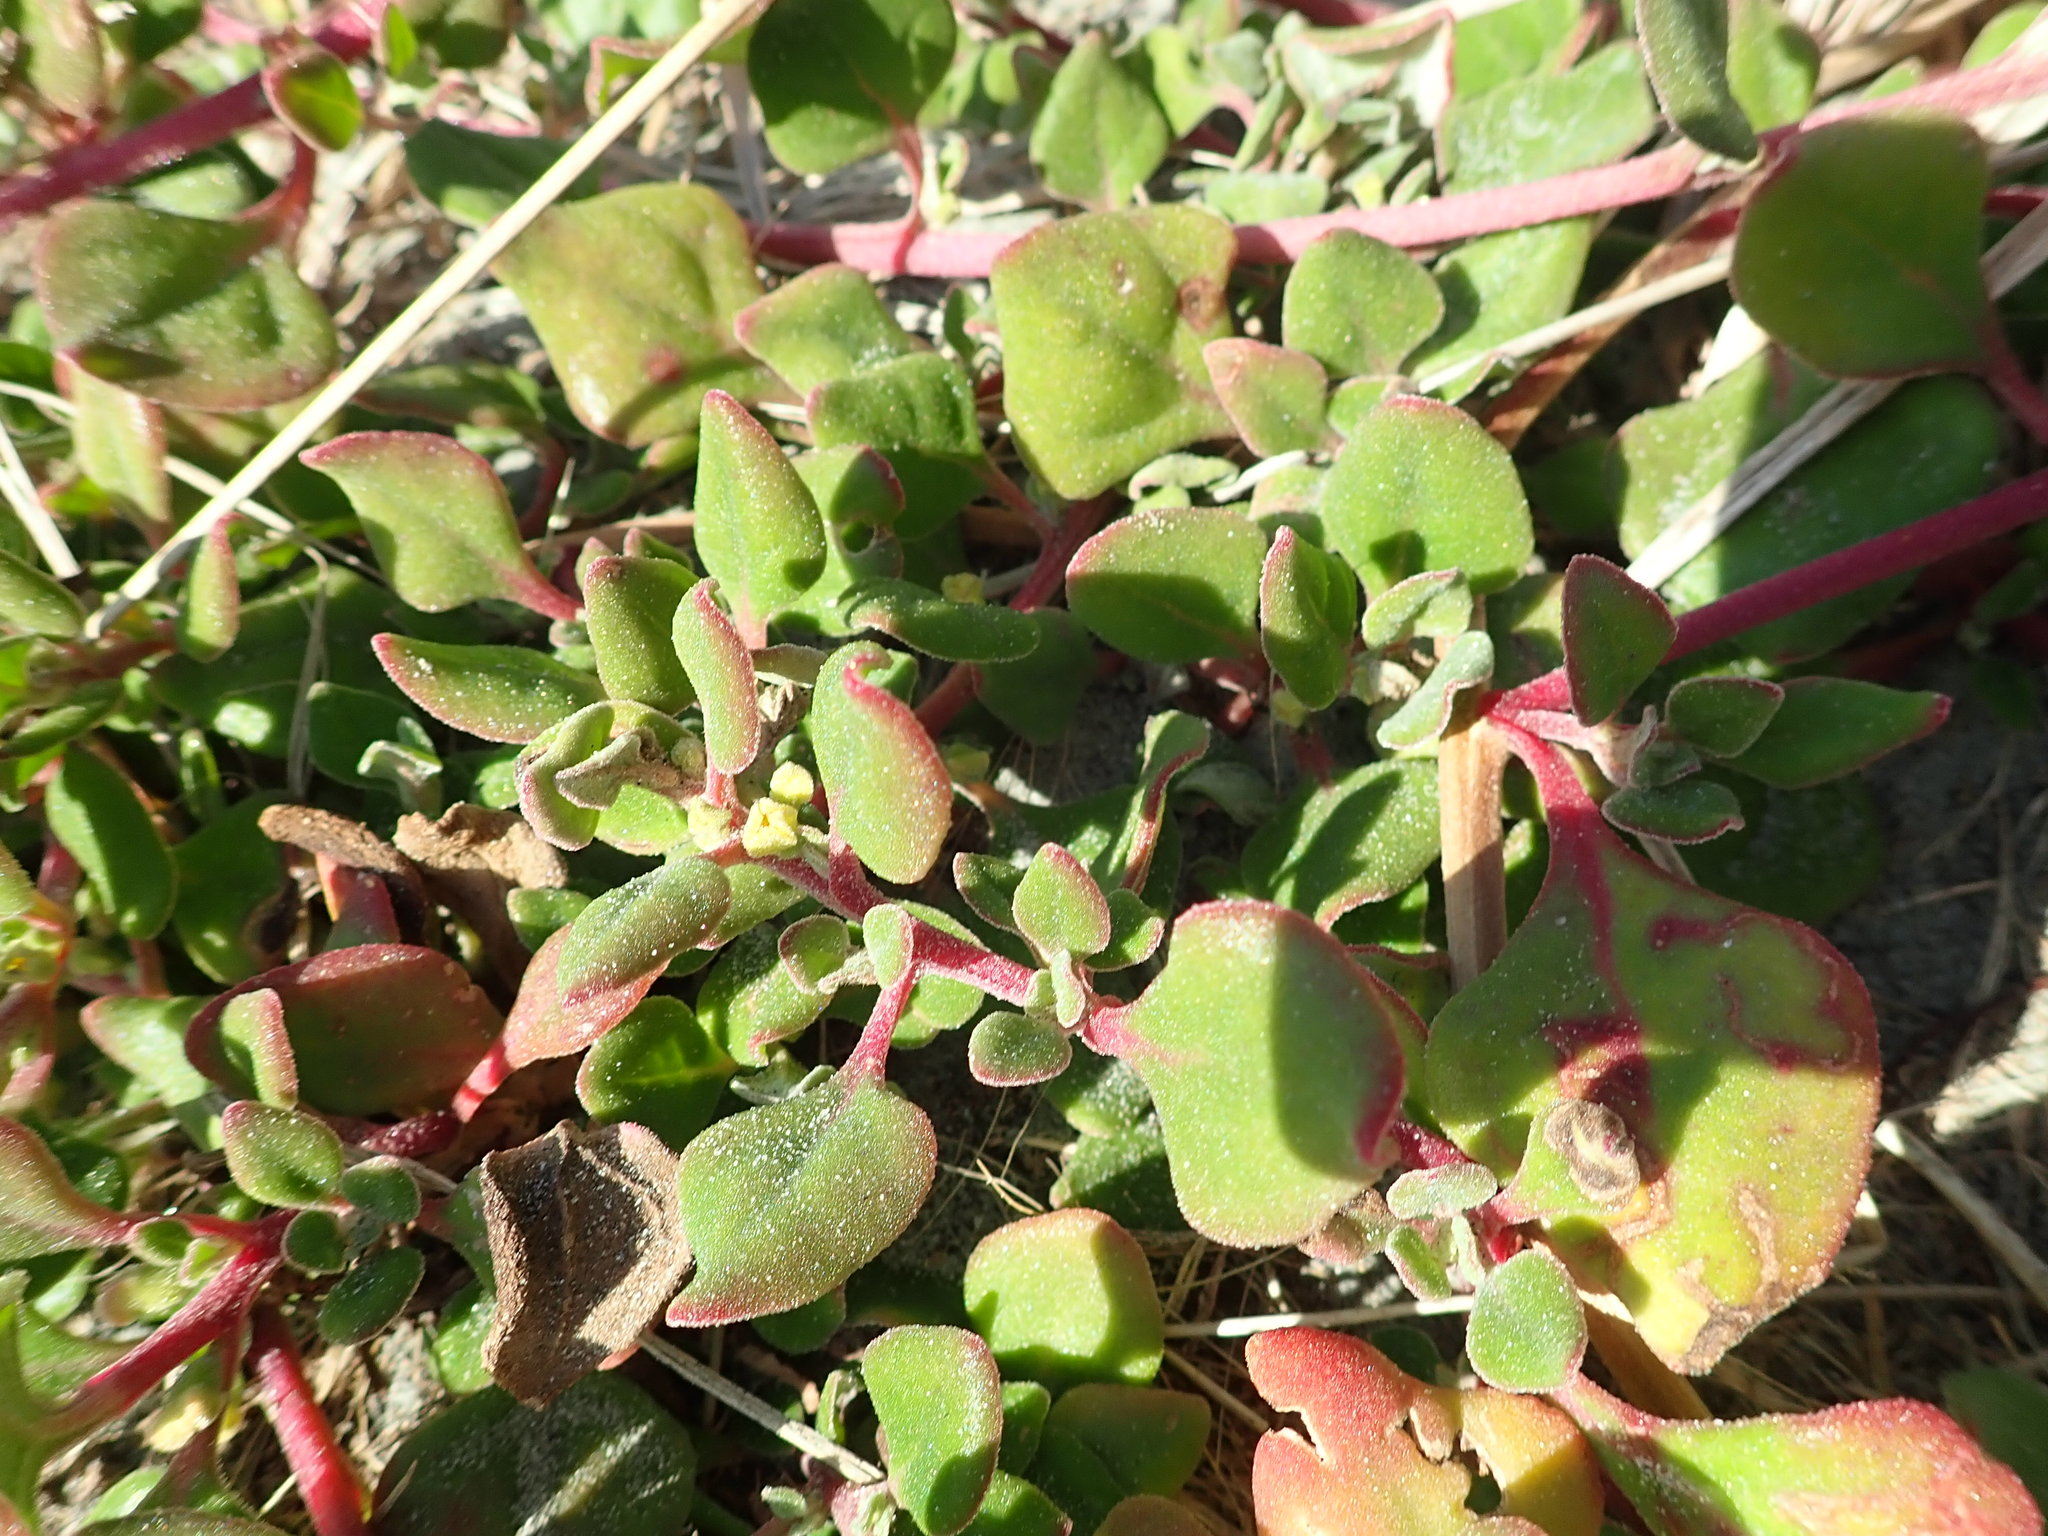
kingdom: Plantae
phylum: Tracheophyta
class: Magnoliopsida
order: Caryophyllales
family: Aizoaceae
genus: Tetragonia
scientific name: Tetragonia implexicoma
